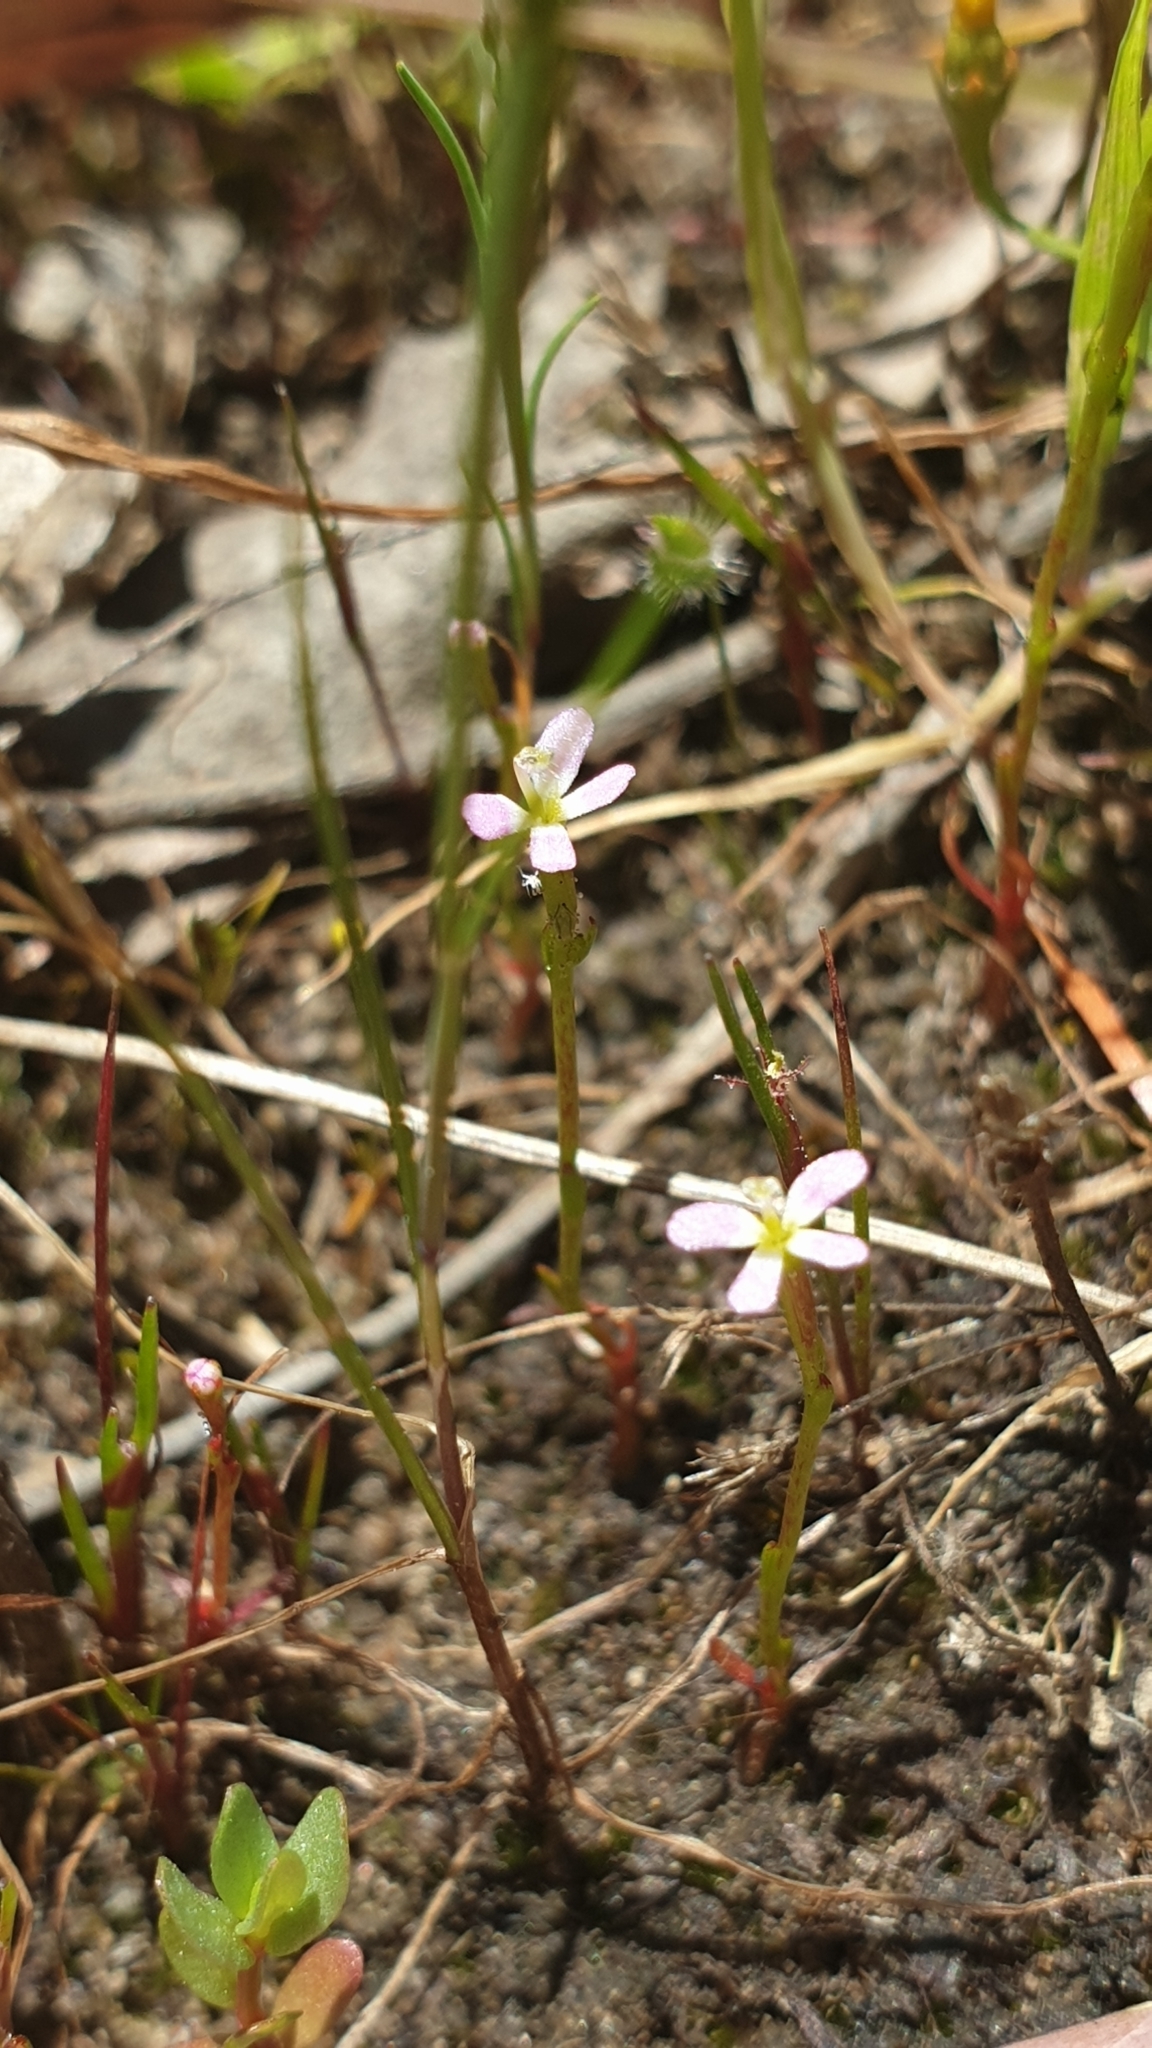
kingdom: Plantae
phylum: Tracheophyta
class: Magnoliopsida
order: Asterales
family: Stylidiaceae
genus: Stylidium
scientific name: Stylidium despectum
